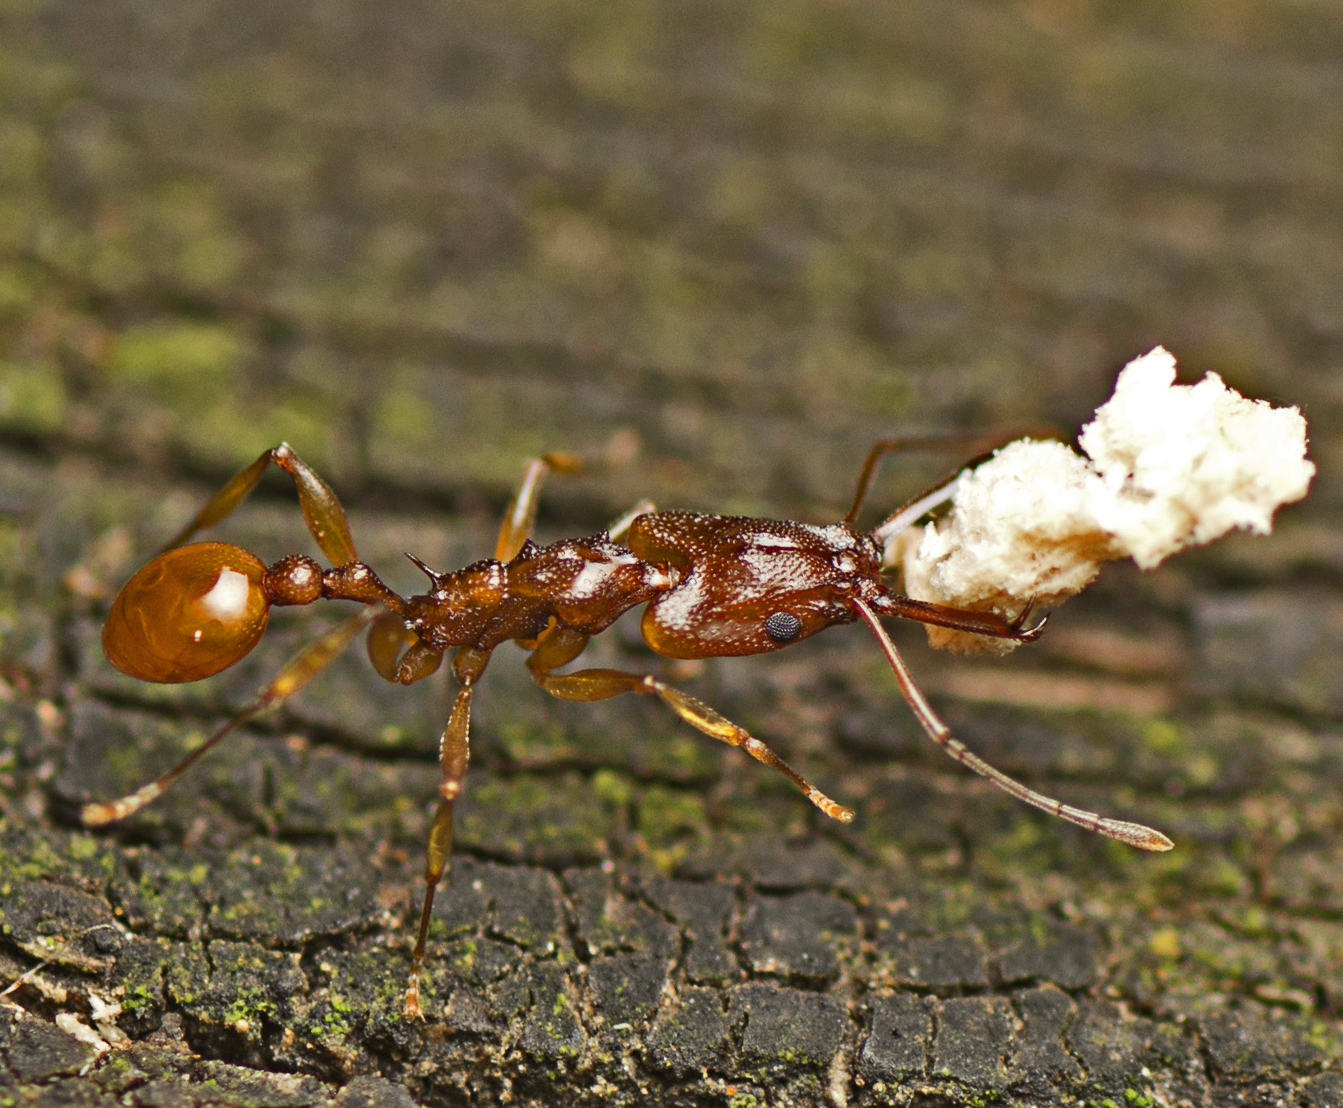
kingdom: Animalia
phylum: Arthropoda
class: Insecta
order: Hymenoptera
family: Formicidae
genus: Orectognathus
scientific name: Orectognathus antennatus
